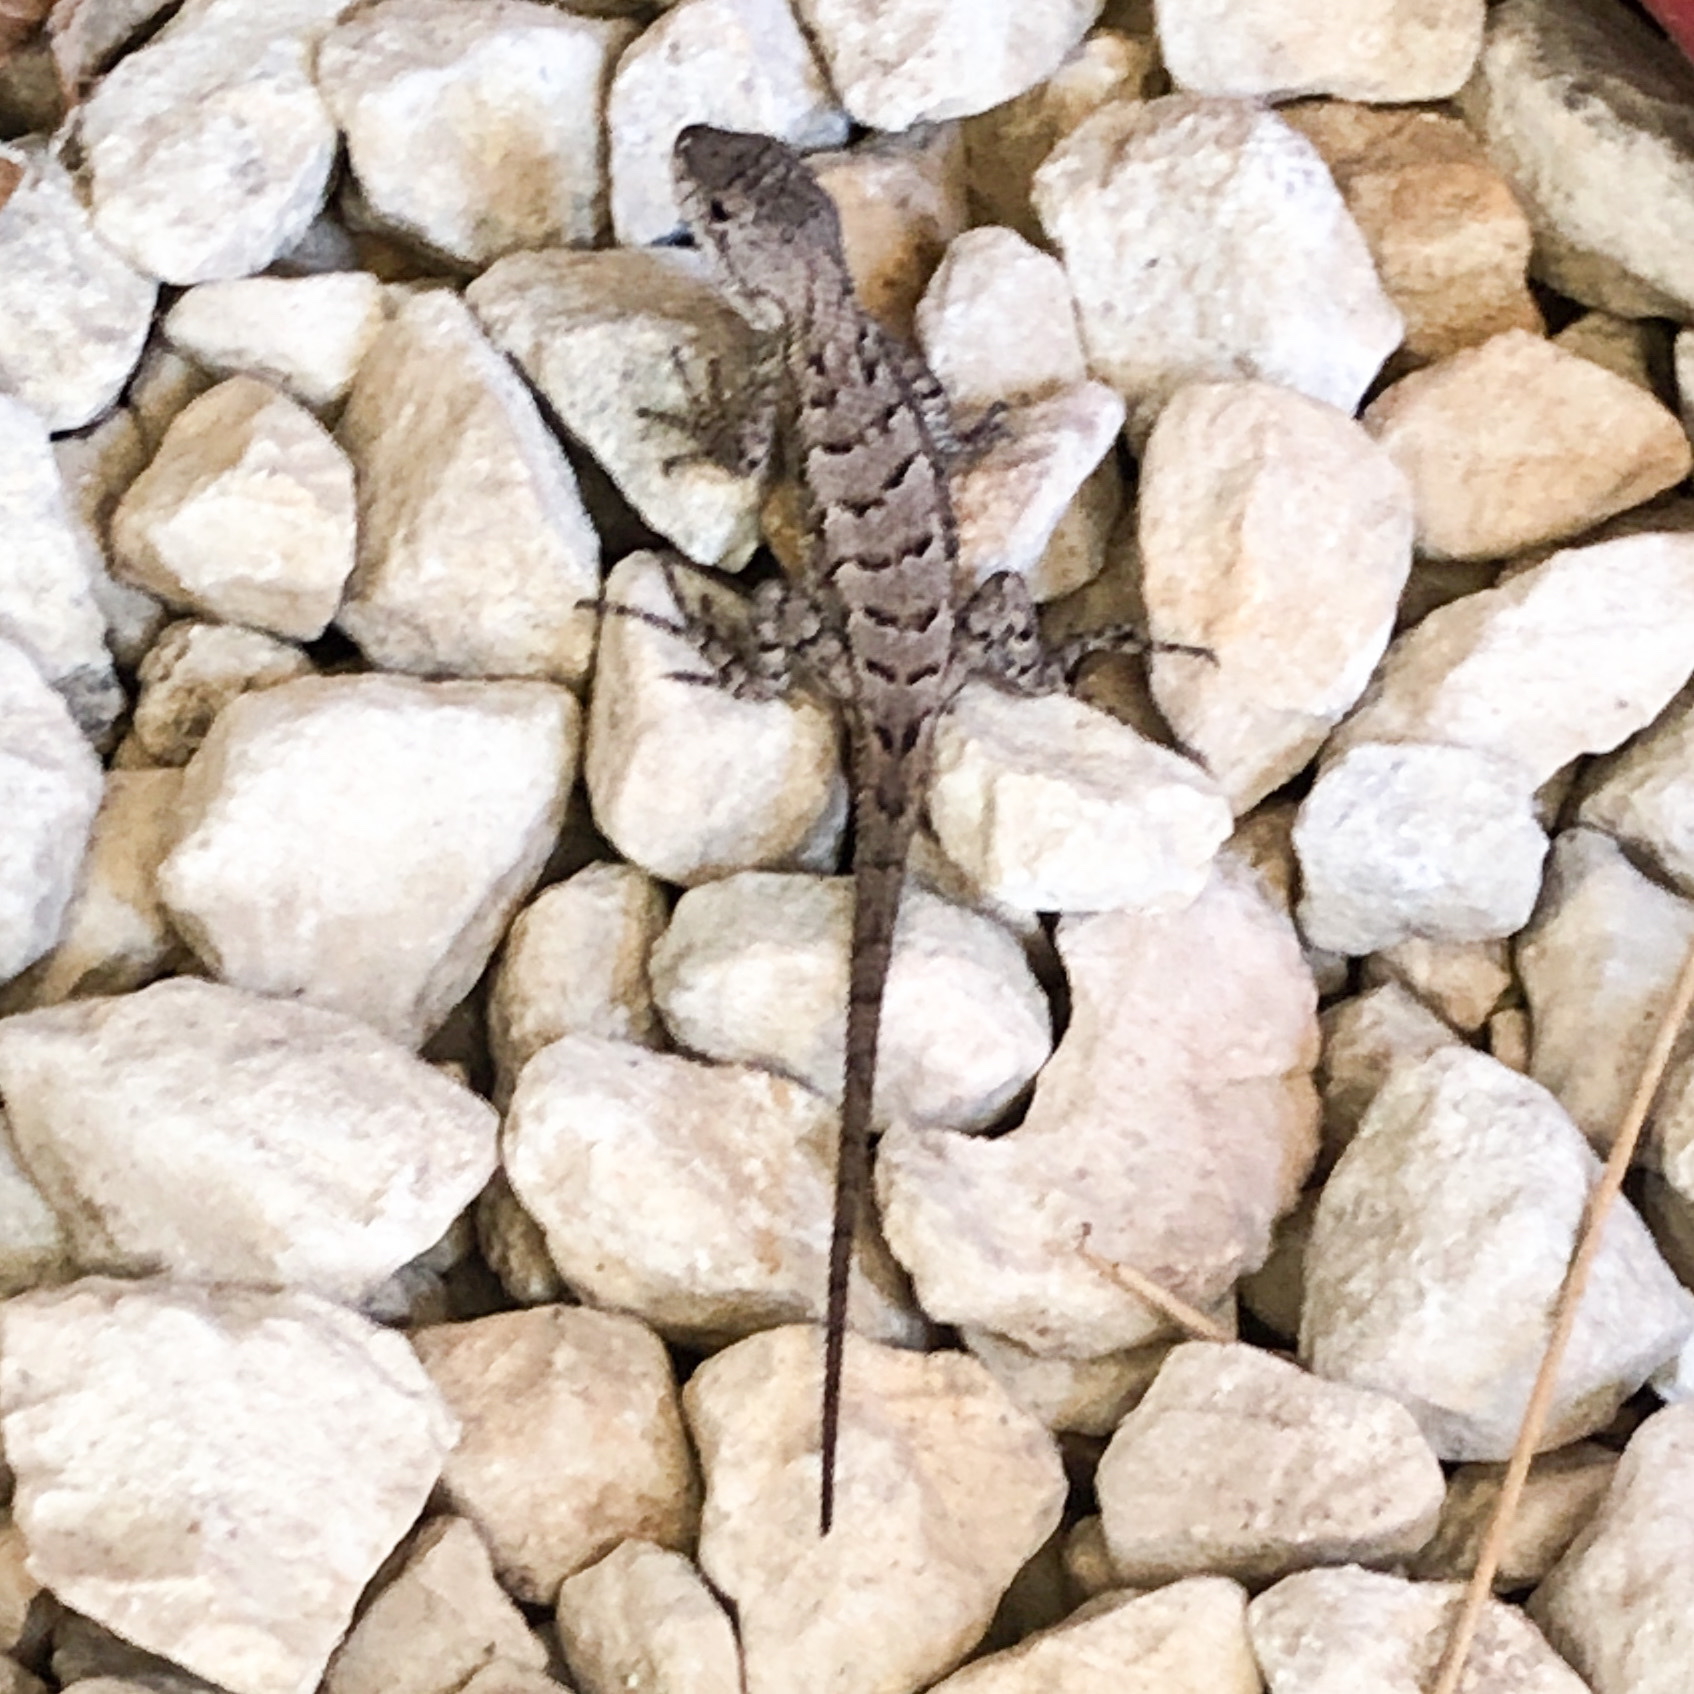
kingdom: Animalia
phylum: Chordata
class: Squamata
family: Phrynosomatidae
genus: Sceloporus
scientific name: Sceloporus consobrinus
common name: Southern prairie lizard
